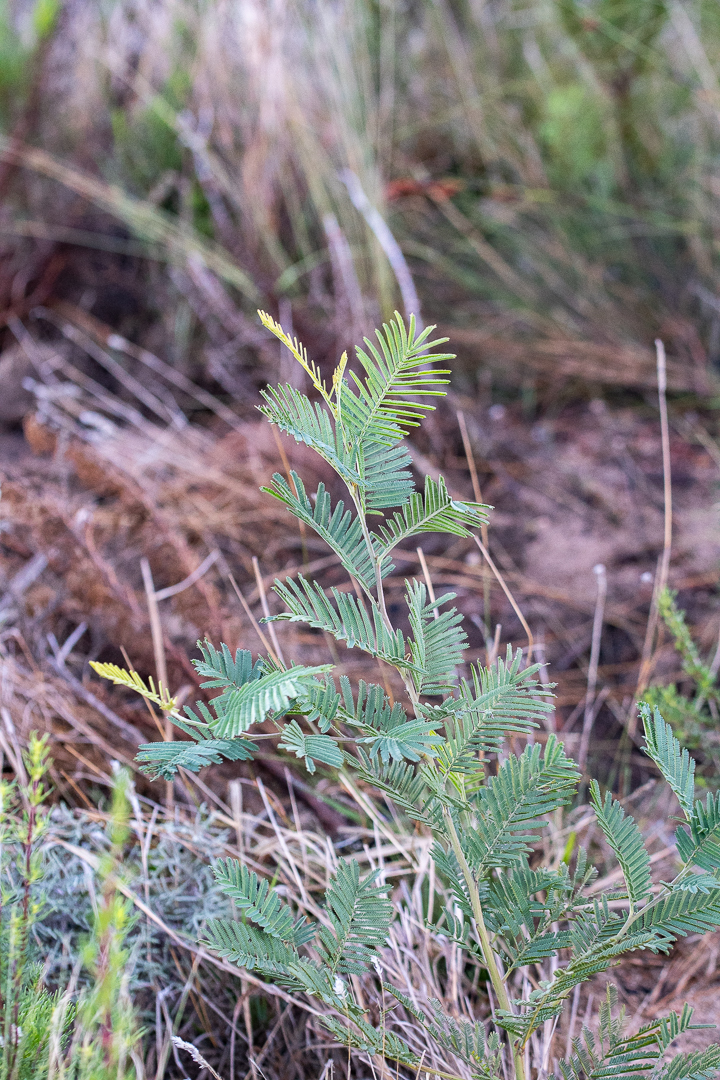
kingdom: Plantae
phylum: Tracheophyta
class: Magnoliopsida
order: Fabales
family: Fabaceae
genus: Acacia
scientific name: Acacia mearnsii
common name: Black wattle
